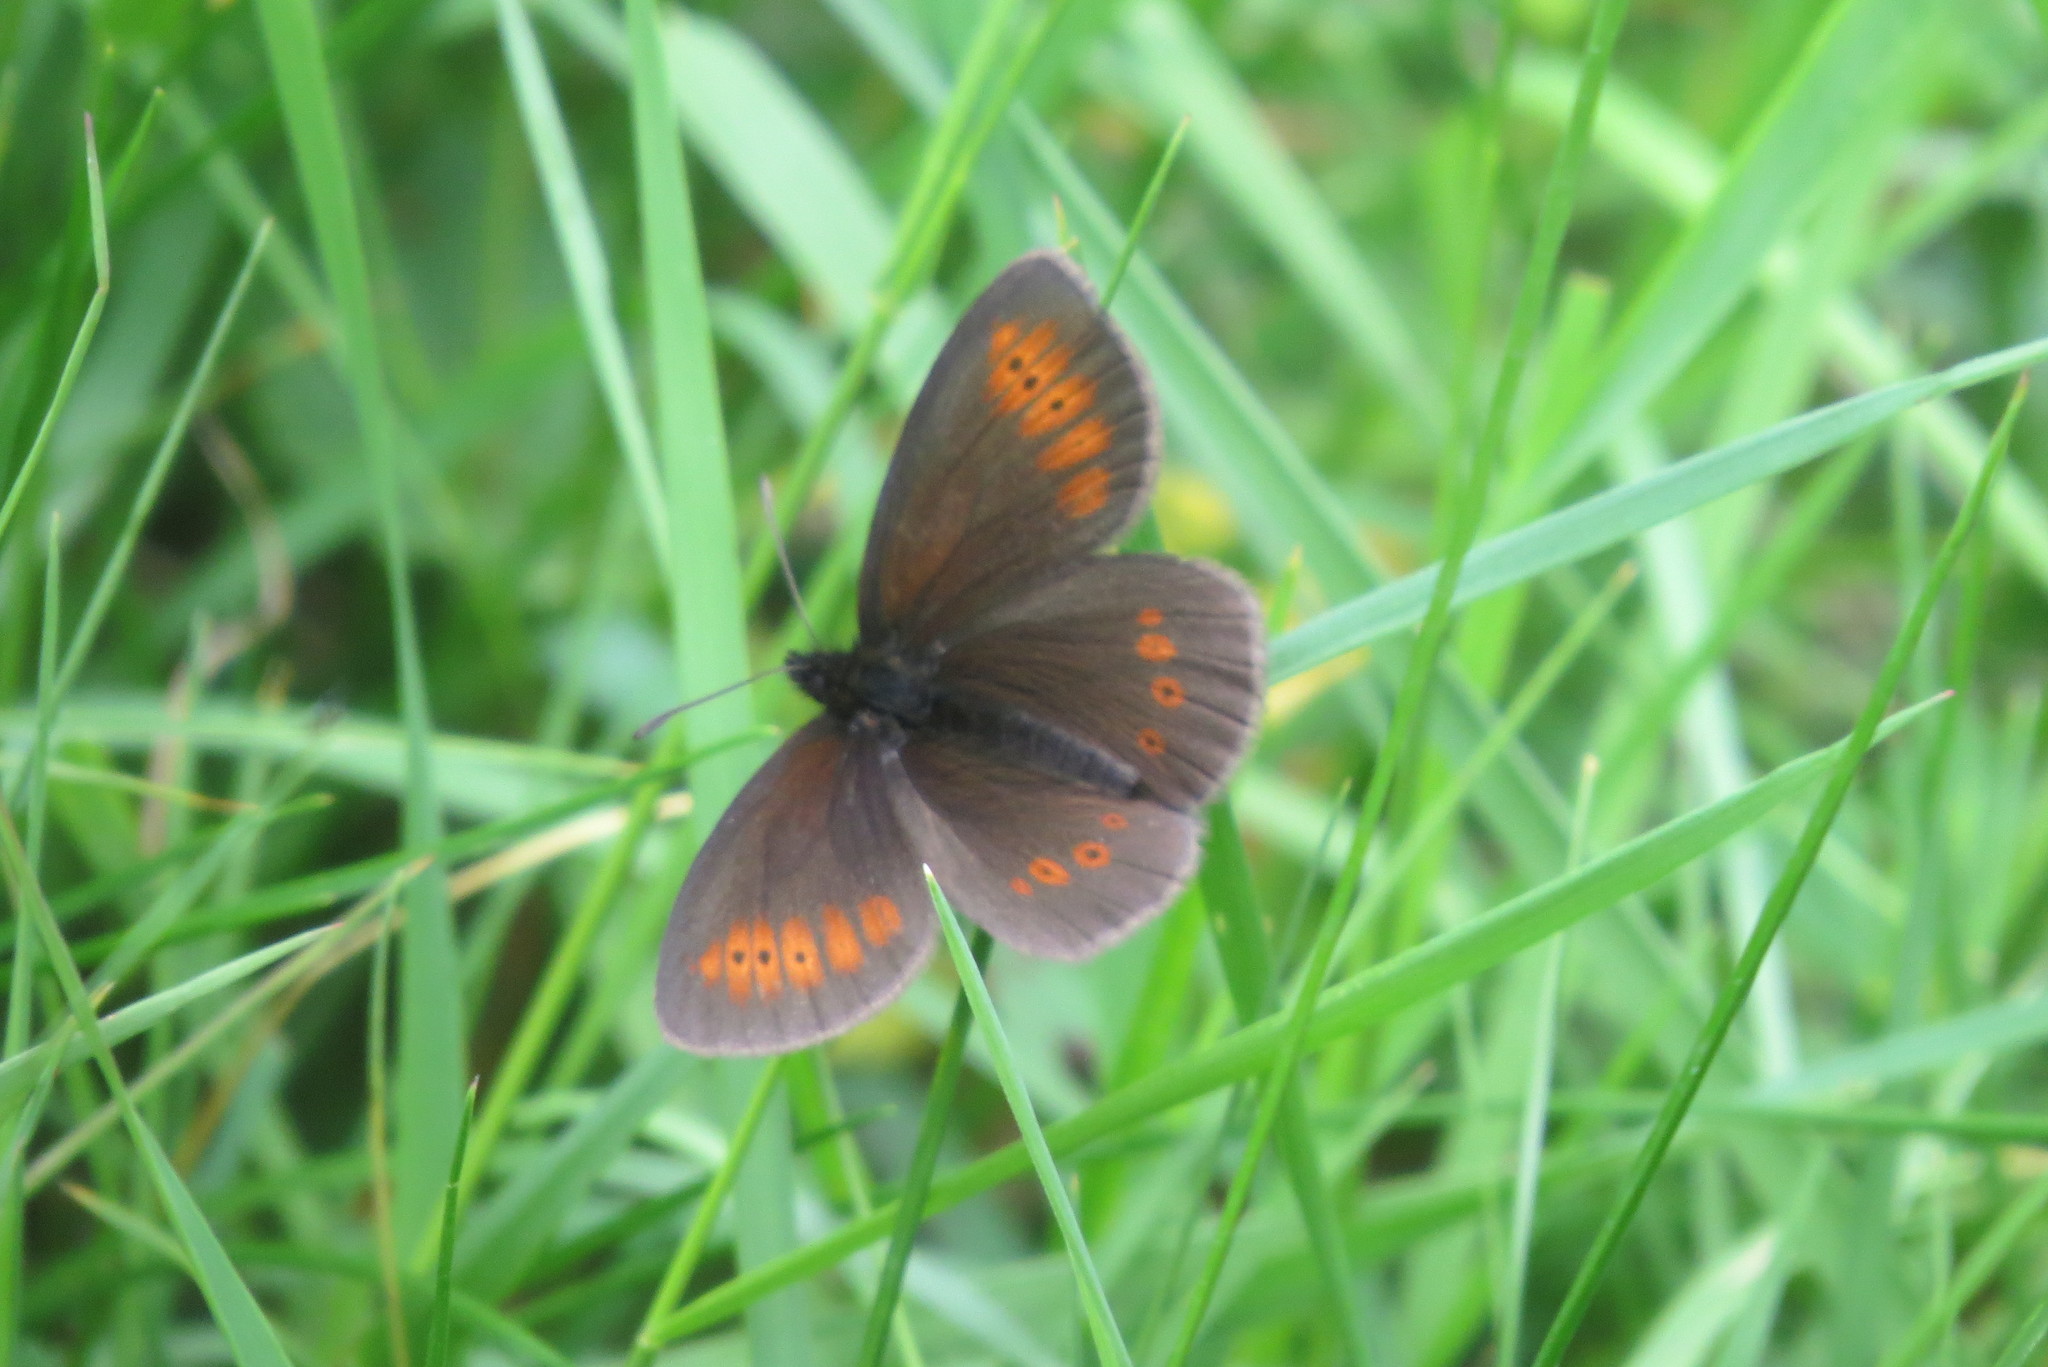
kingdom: Animalia
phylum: Arthropoda
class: Insecta
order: Lepidoptera
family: Nymphalidae
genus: Erebia
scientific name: Erebia melampus
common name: Lesser mountain ringlet
